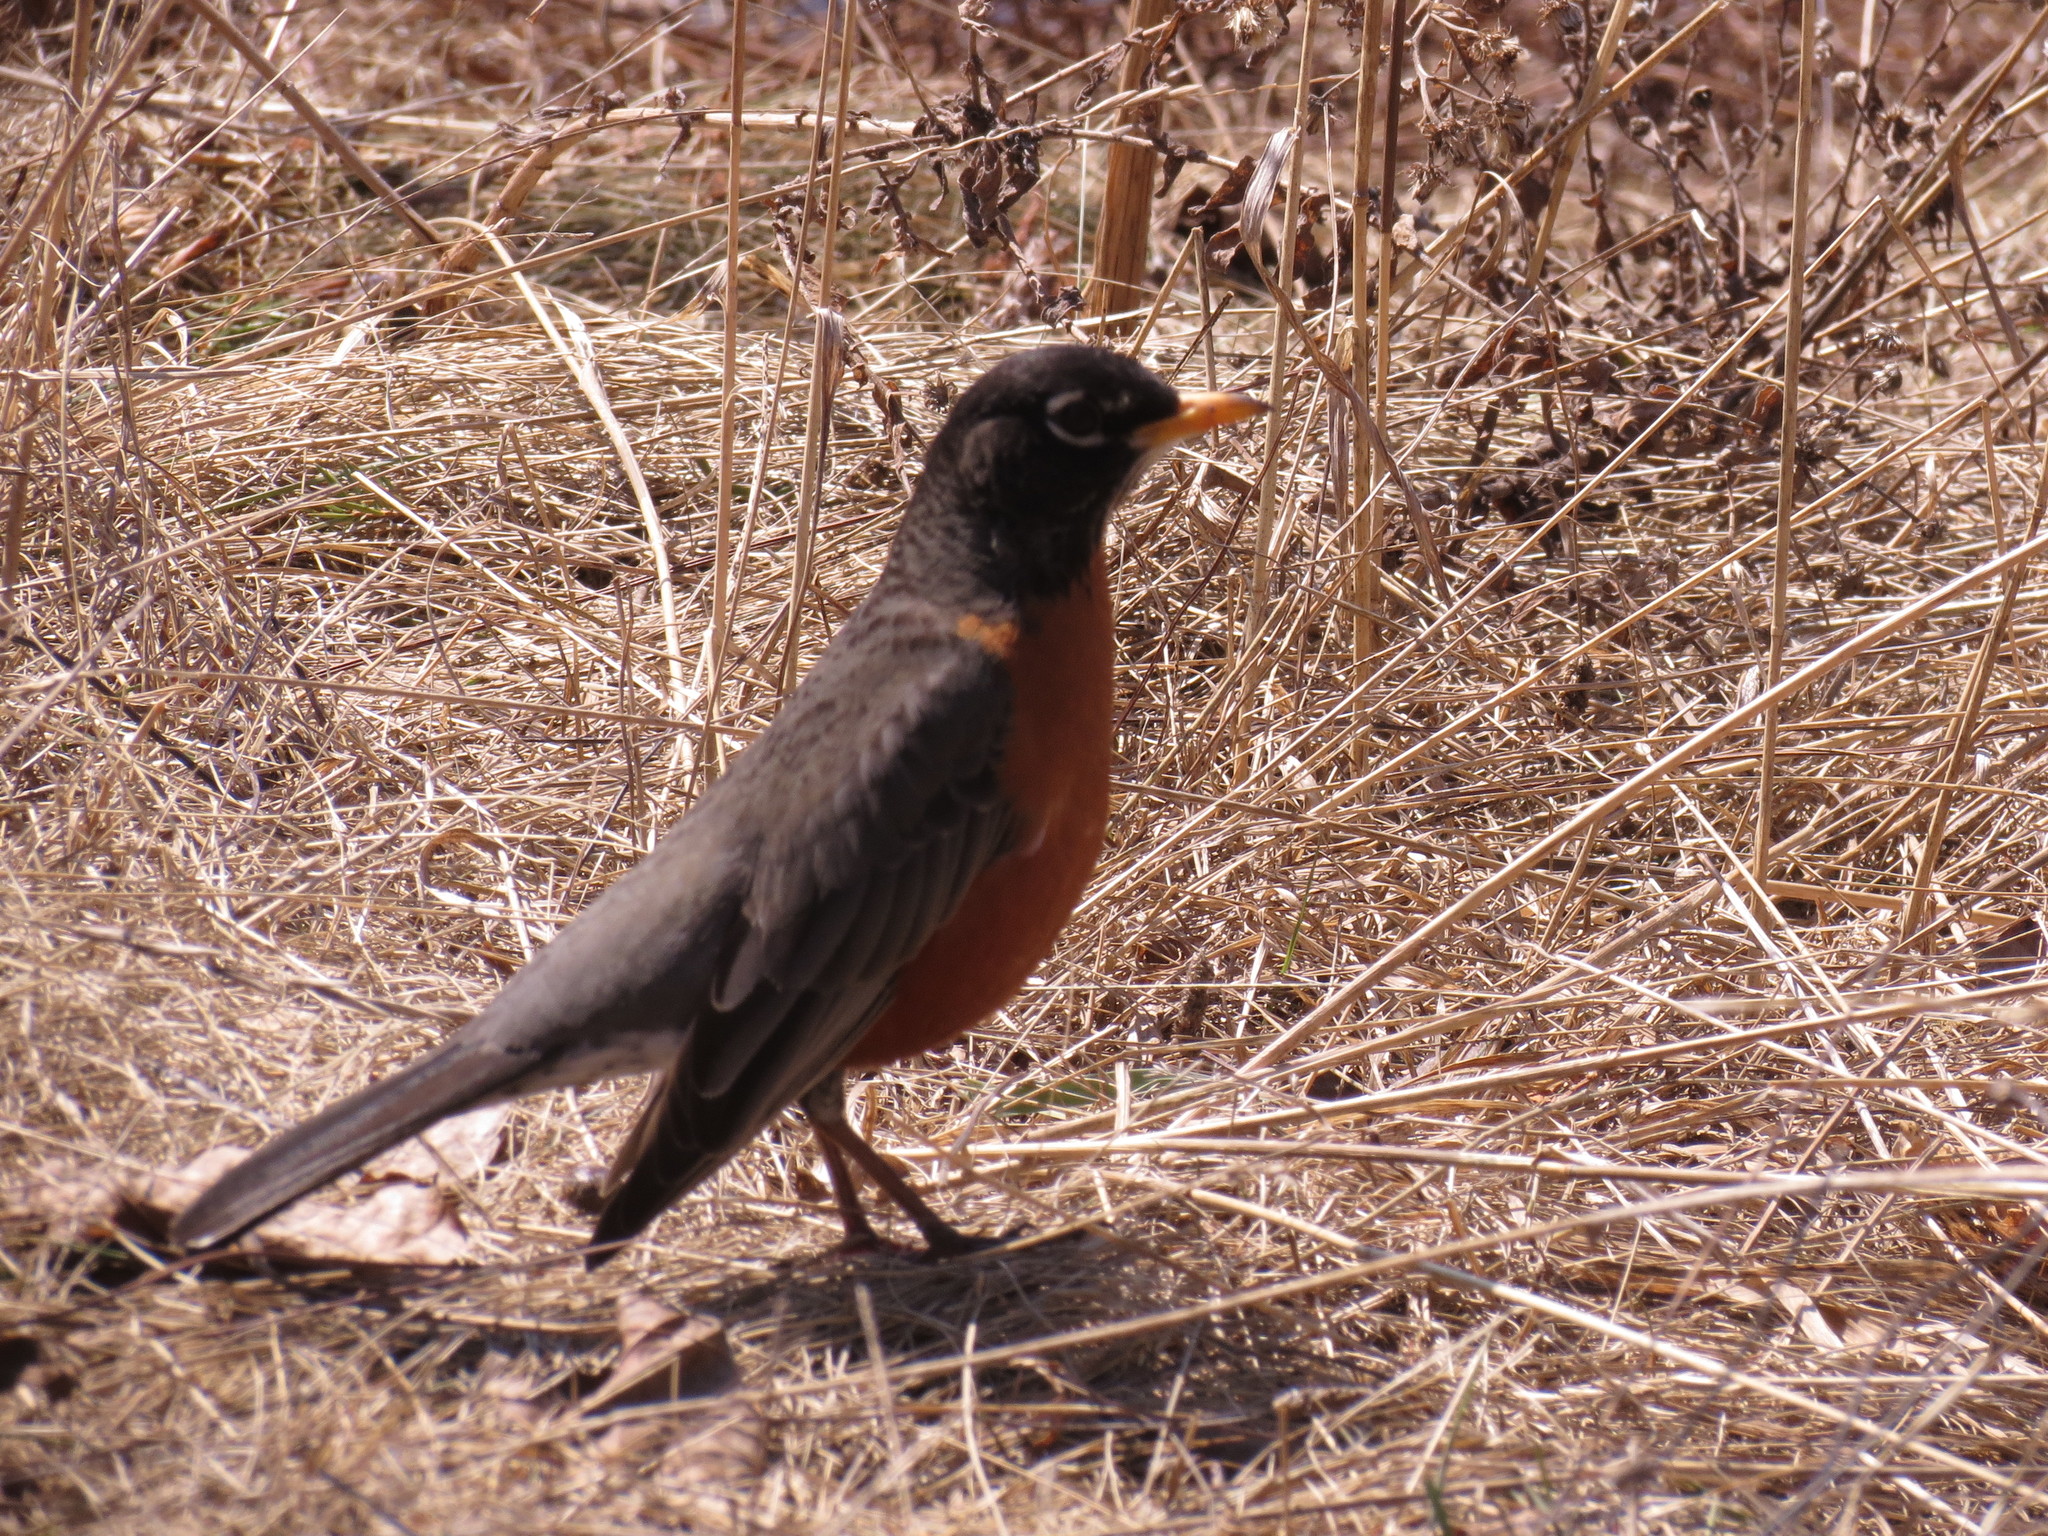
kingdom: Animalia
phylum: Chordata
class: Aves
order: Passeriformes
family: Turdidae
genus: Turdus
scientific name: Turdus migratorius
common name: American robin
